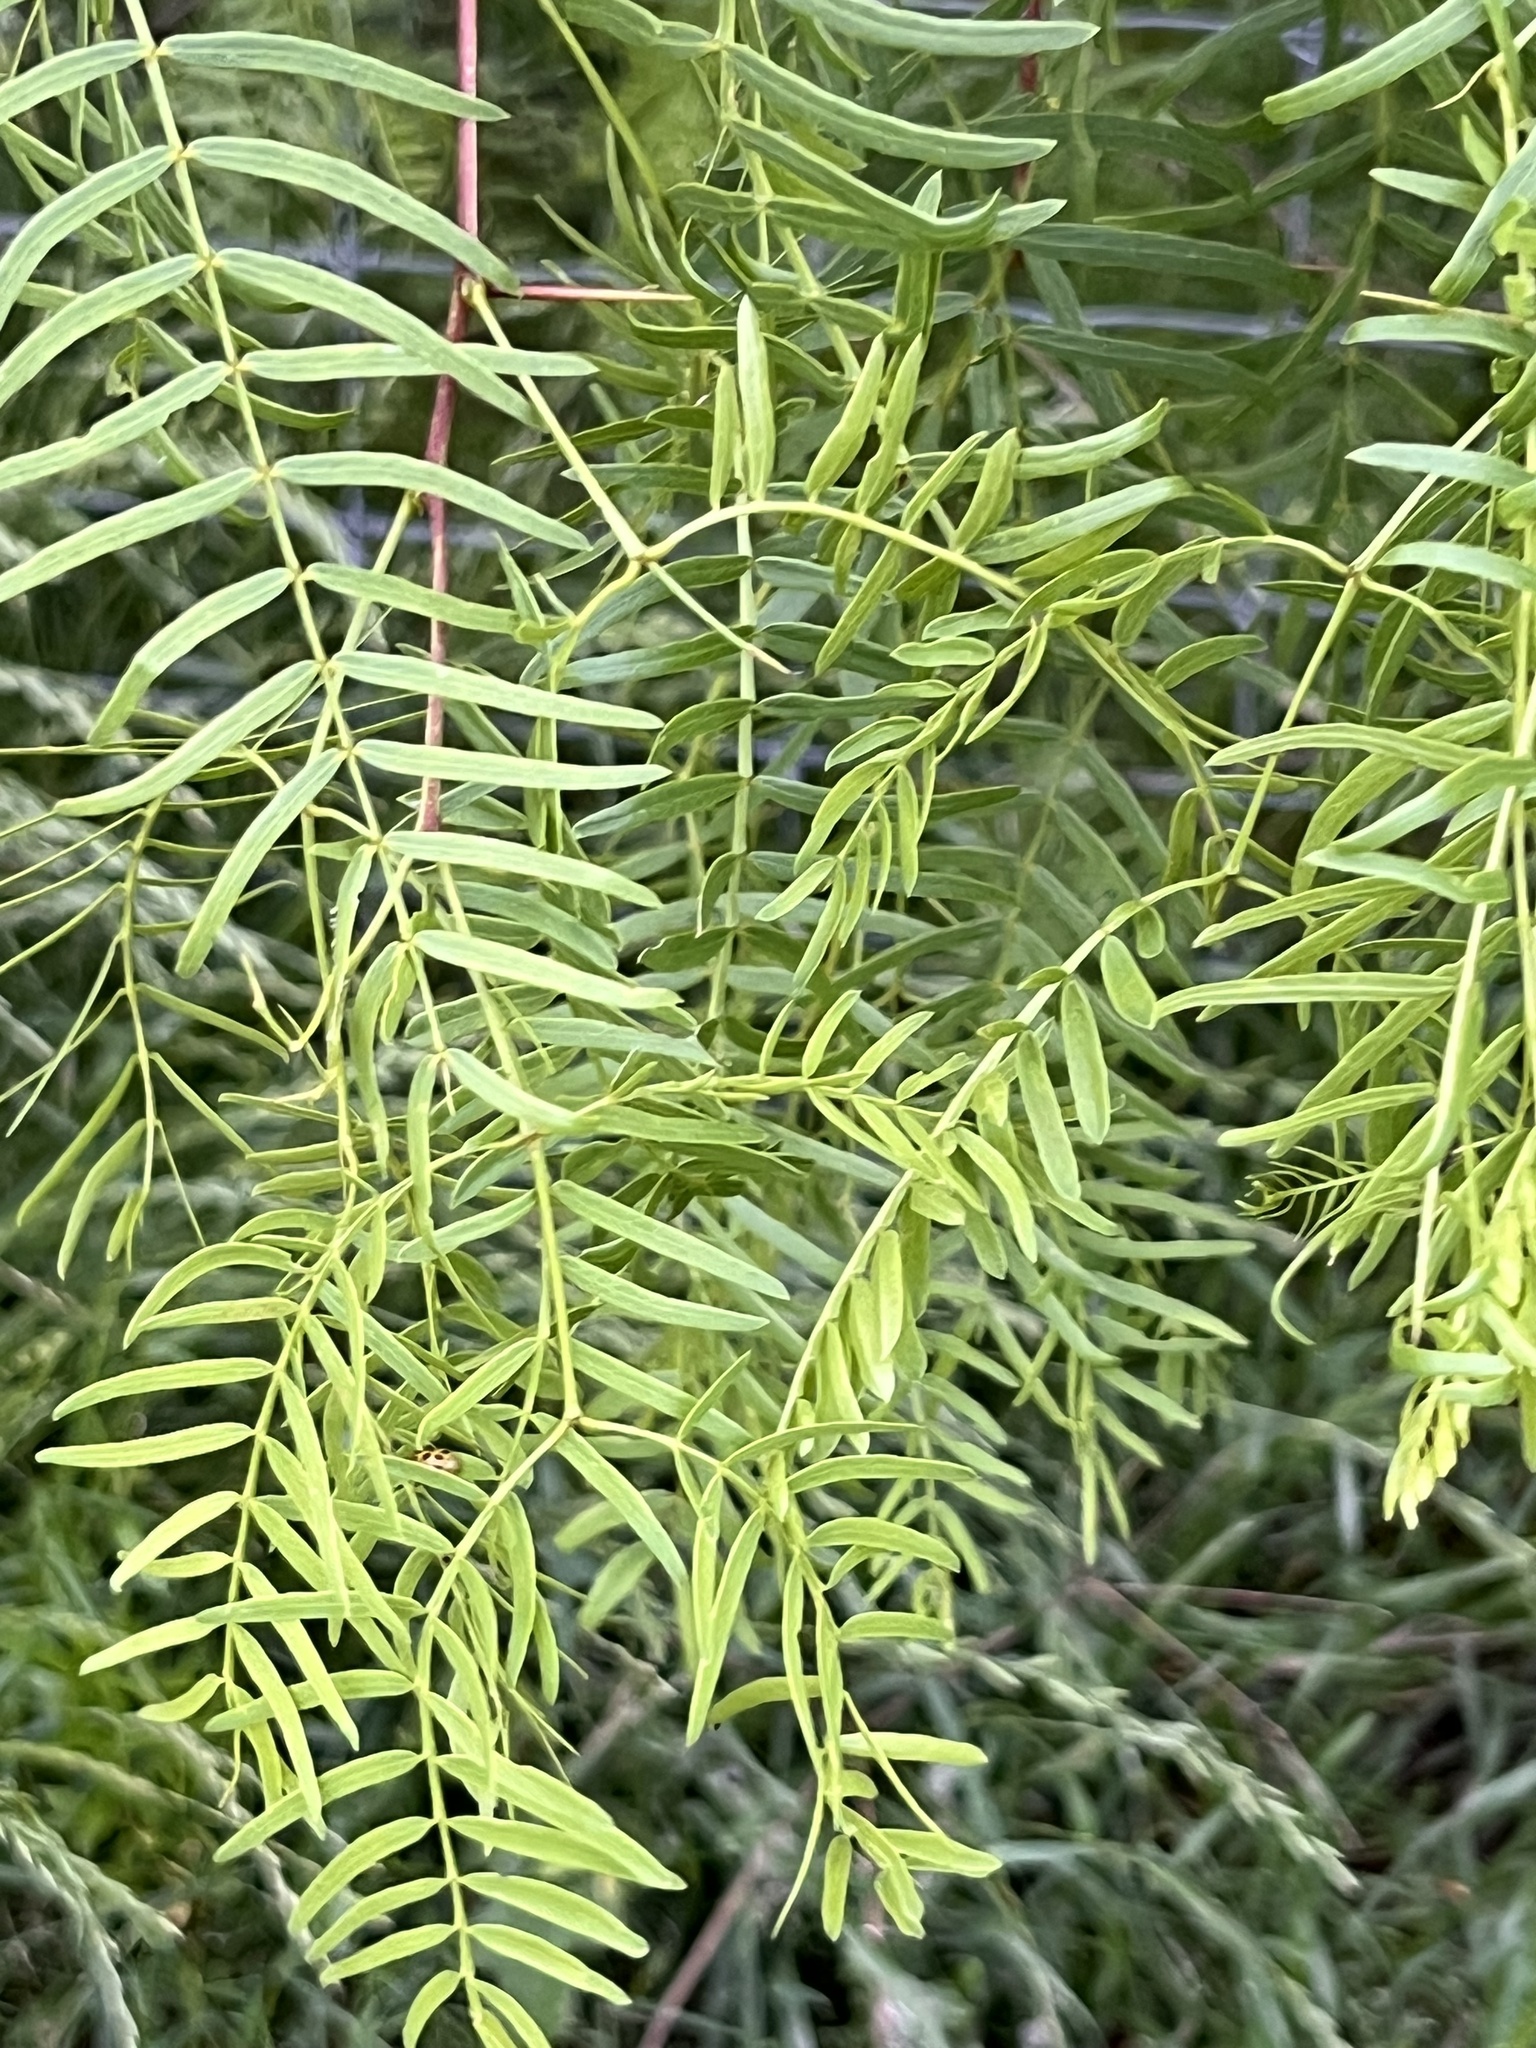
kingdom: Plantae
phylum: Tracheophyta
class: Magnoliopsida
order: Fabales
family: Fabaceae
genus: Prosopis
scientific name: Prosopis glandulosa
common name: Honey mesquite
